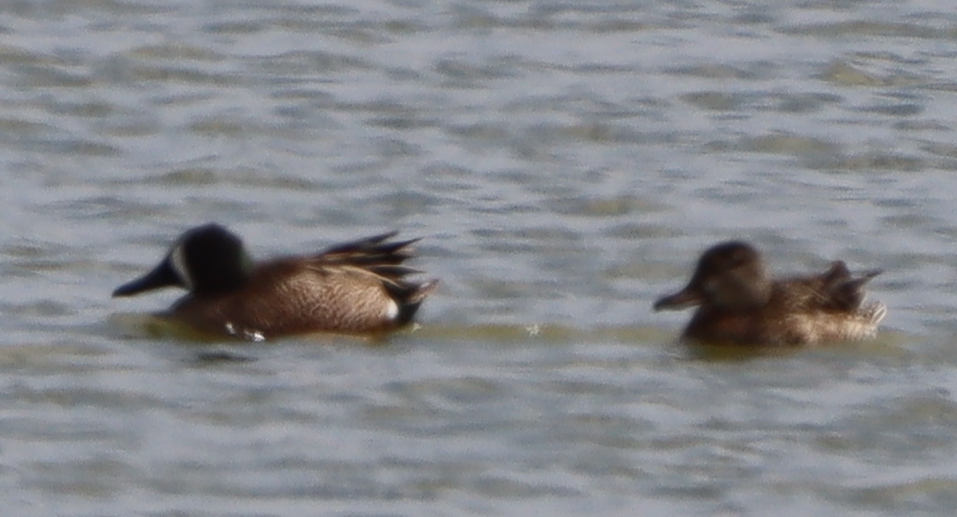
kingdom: Animalia
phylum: Chordata
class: Aves
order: Anseriformes
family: Anatidae
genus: Spatula
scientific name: Spatula discors
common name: Blue-winged teal
